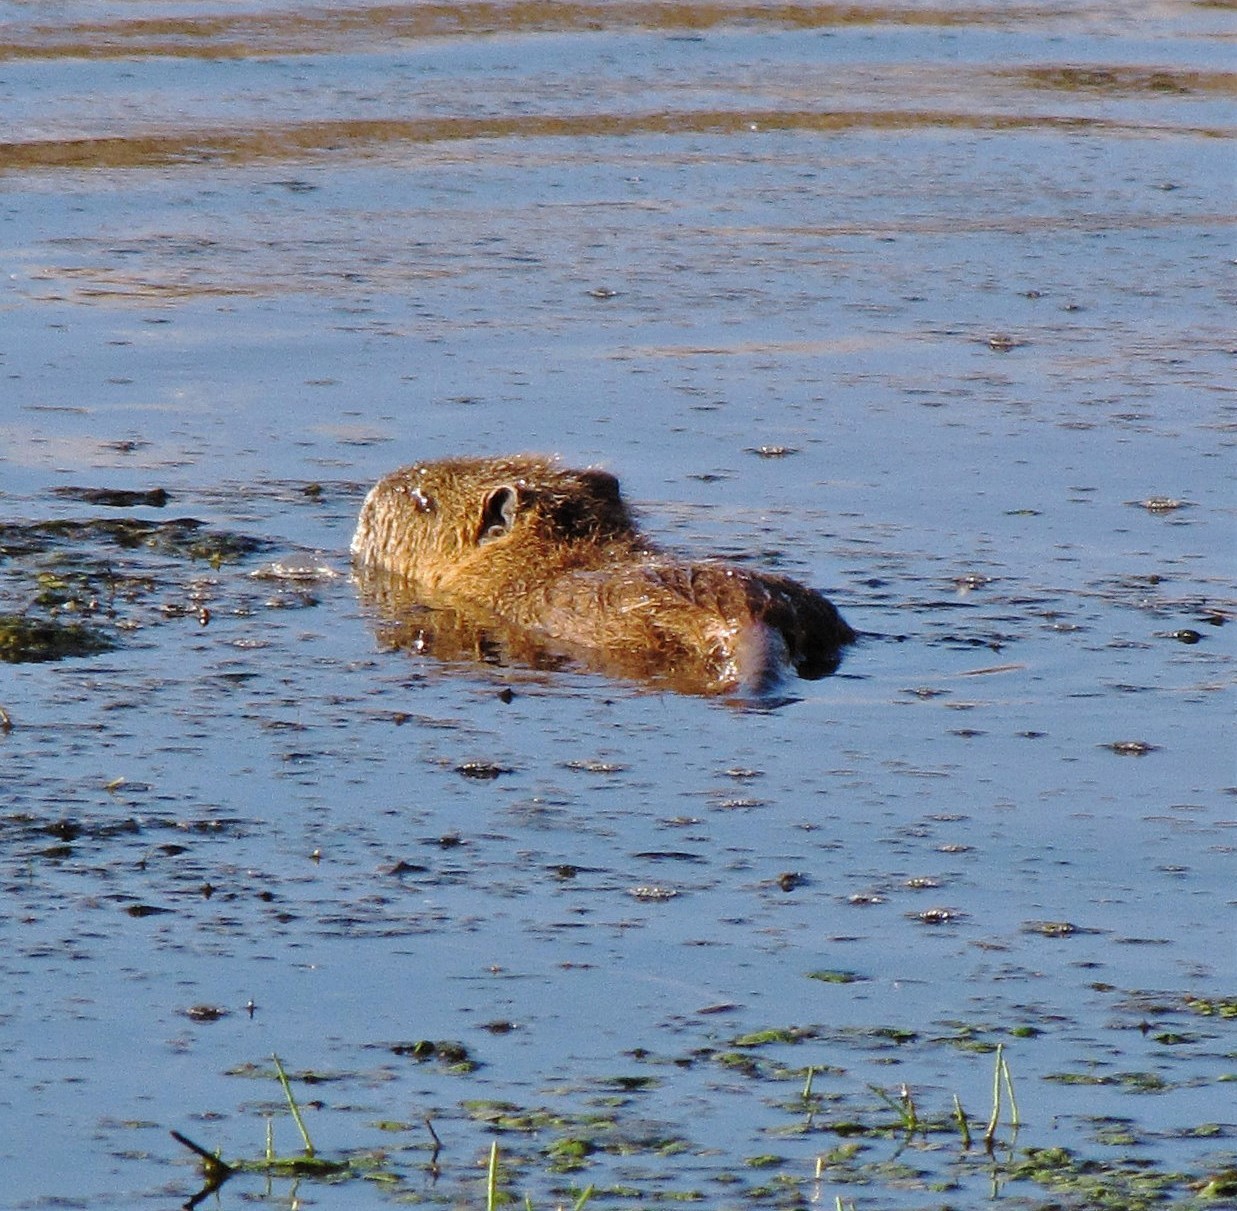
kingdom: Animalia
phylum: Chordata
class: Mammalia
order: Rodentia
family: Myocastoridae
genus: Myocastor
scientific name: Myocastor coypus
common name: Coypu
